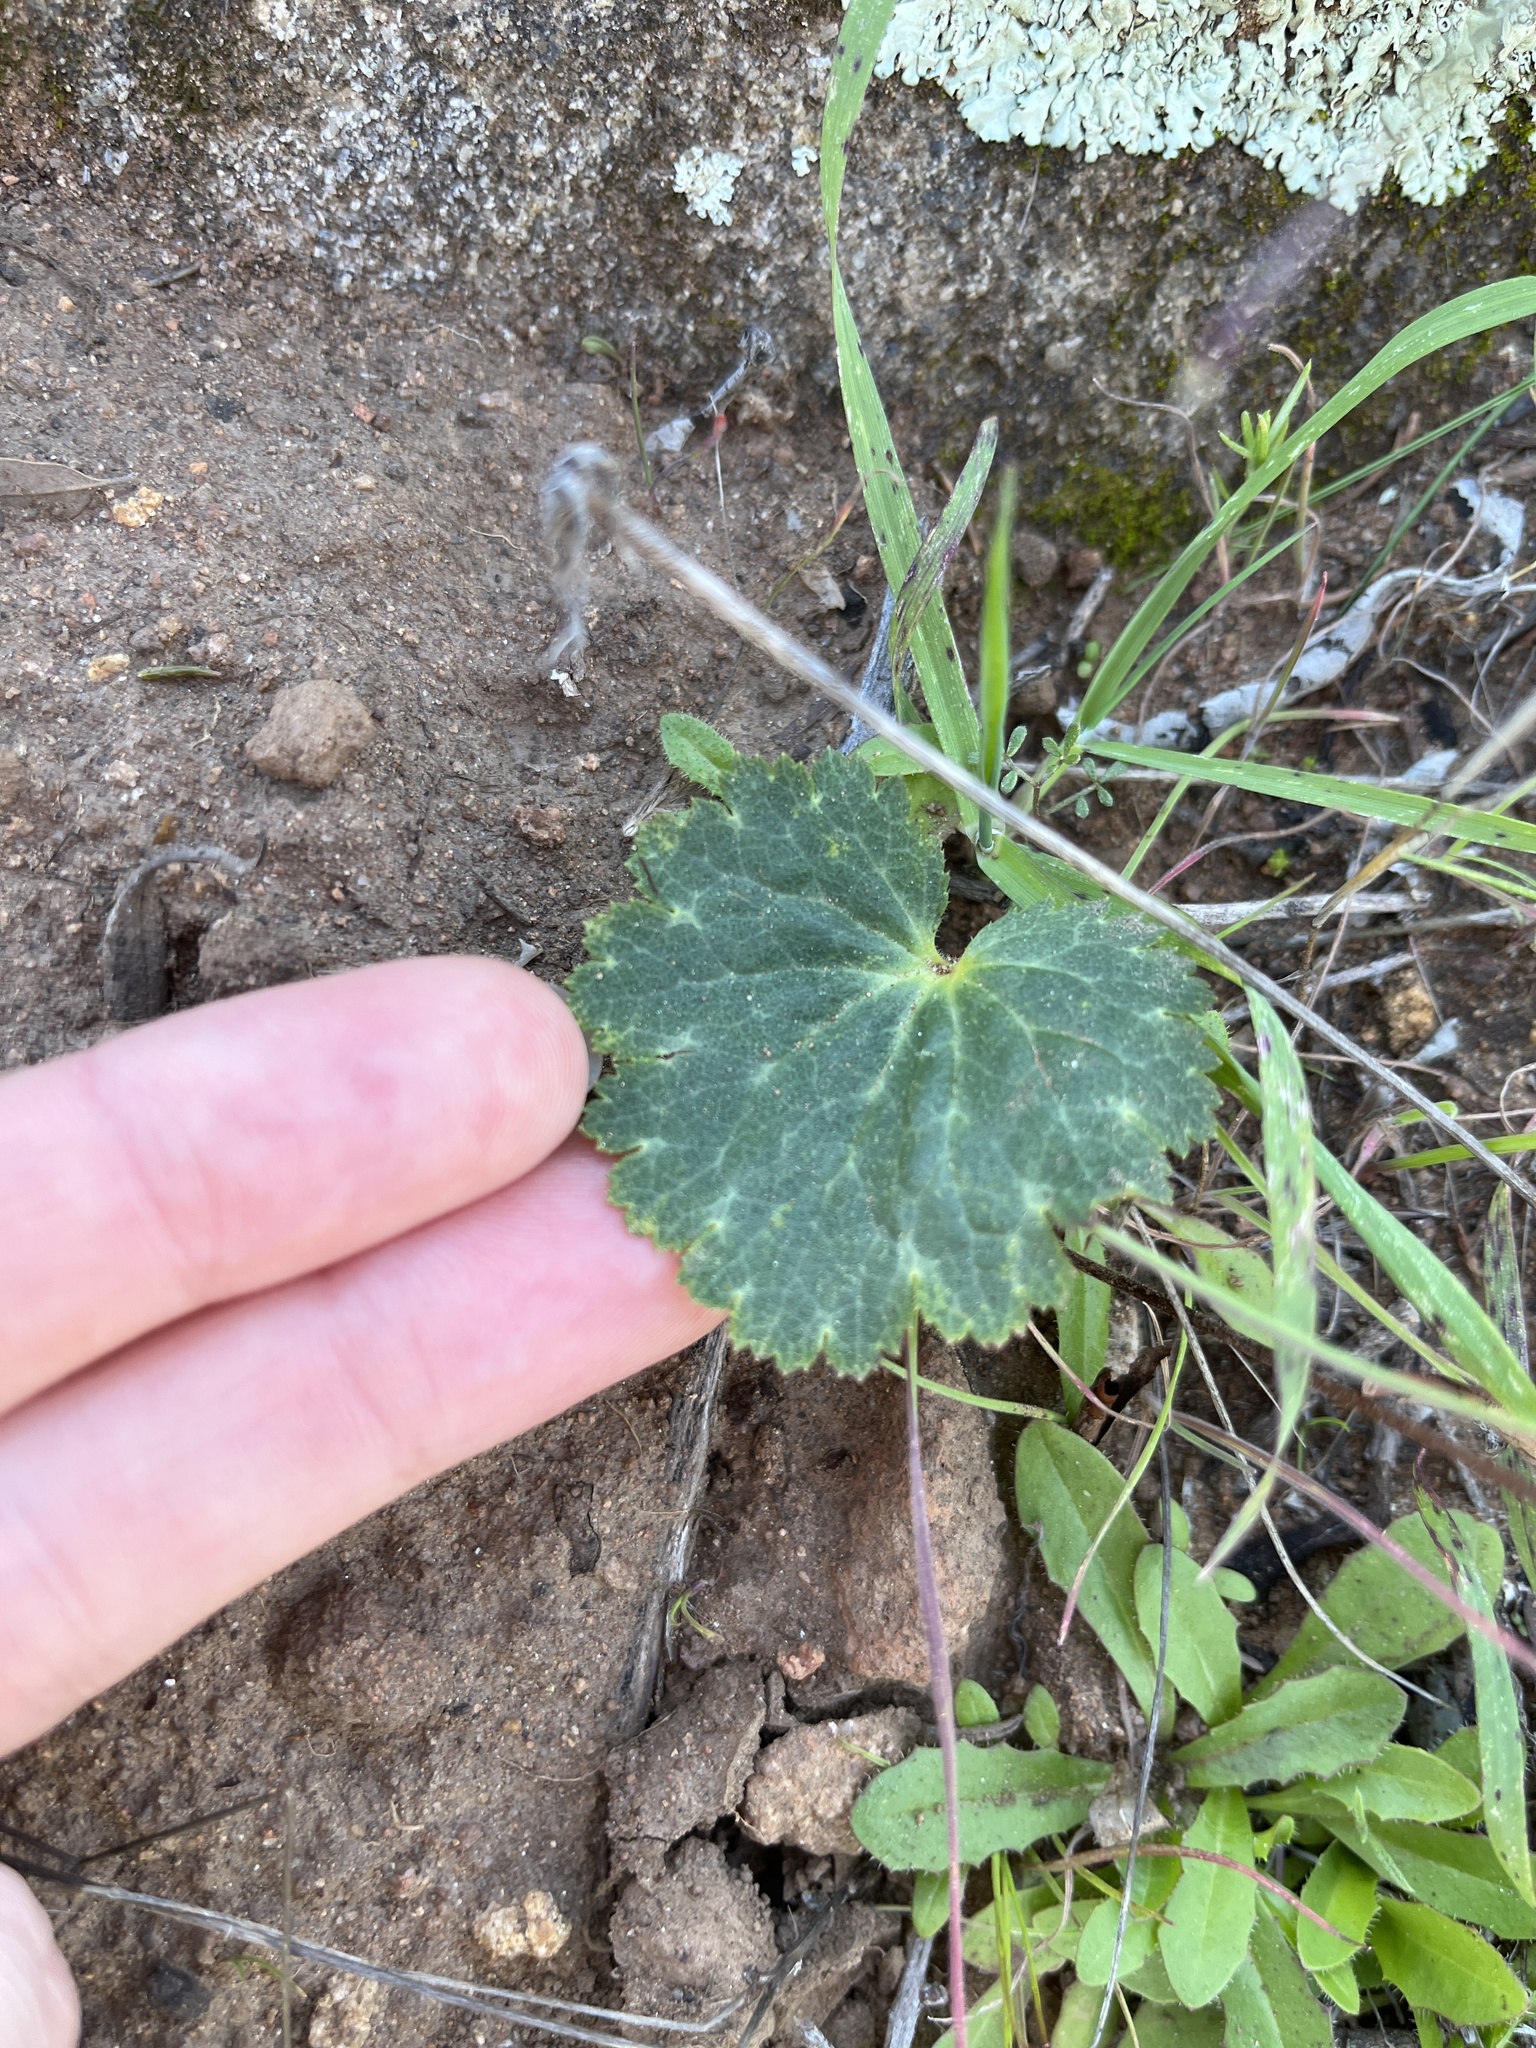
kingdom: Plantae
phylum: Tracheophyta
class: Magnoliopsida
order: Saxifragales
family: Saxifragaceae
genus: Jepsonia
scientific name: Jepsonia parryi
